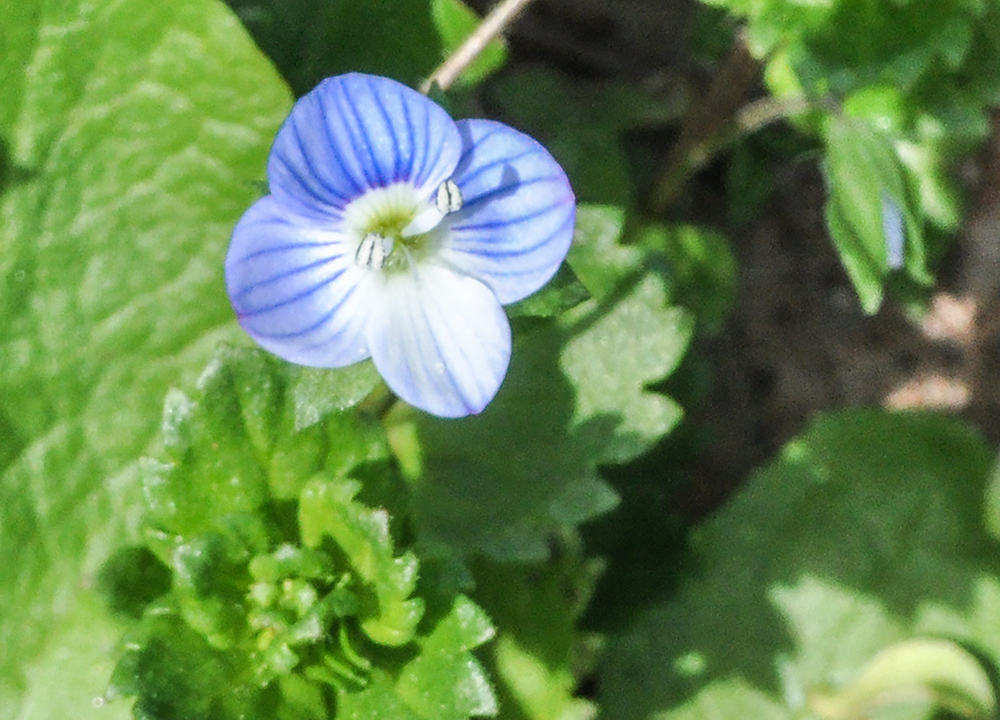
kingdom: Plantae
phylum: Tracheophyta
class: Magnoliopsida
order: Lamiales
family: Plantaginaceae
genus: Veronica
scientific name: Veronica persica
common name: Common field-speedwell
